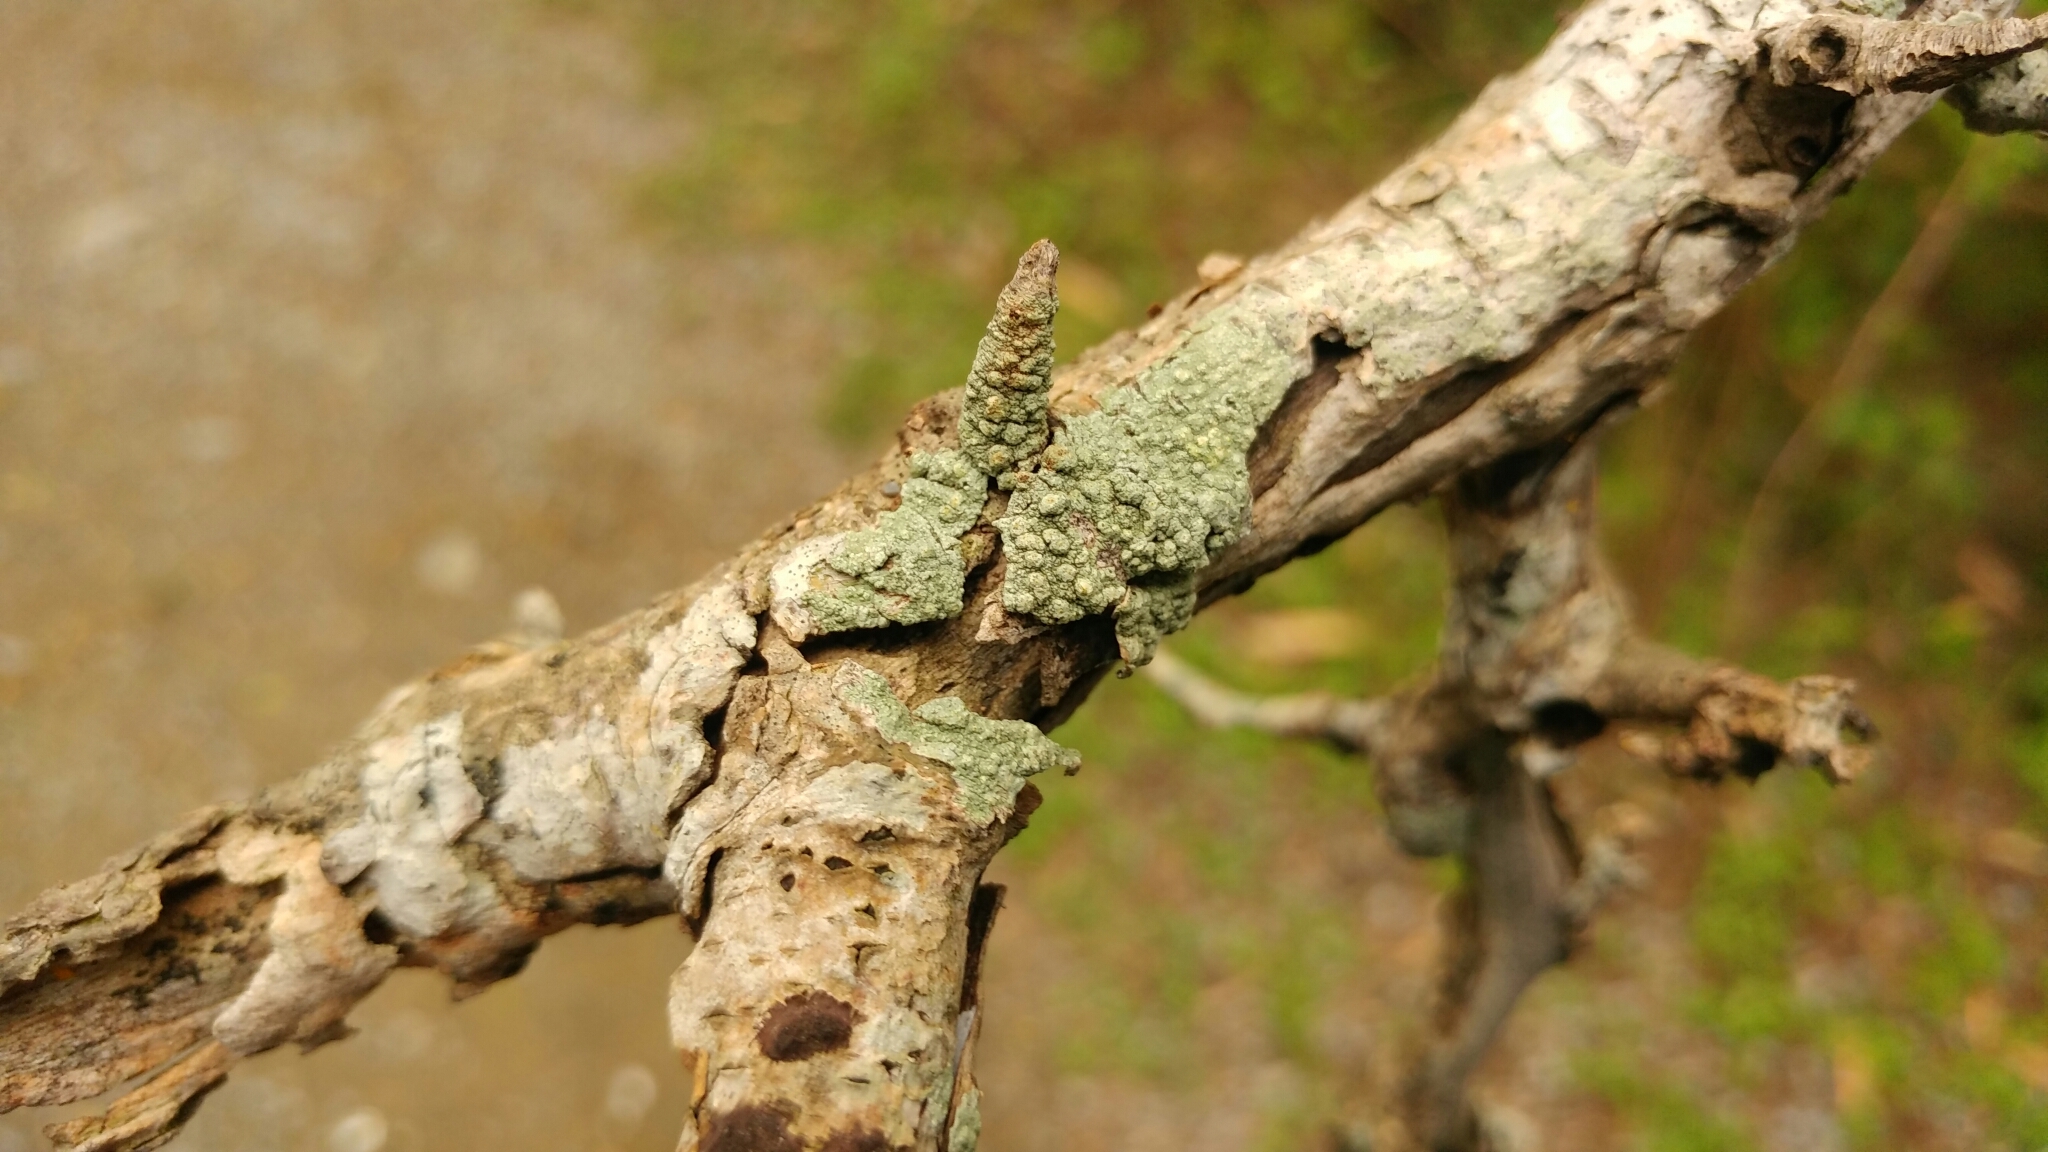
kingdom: Fungi
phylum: Ascomycota
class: Lecanoromycetes
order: Pertusariales
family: Pertusariaceae
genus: Pertusaria
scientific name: Pertusaria texana
